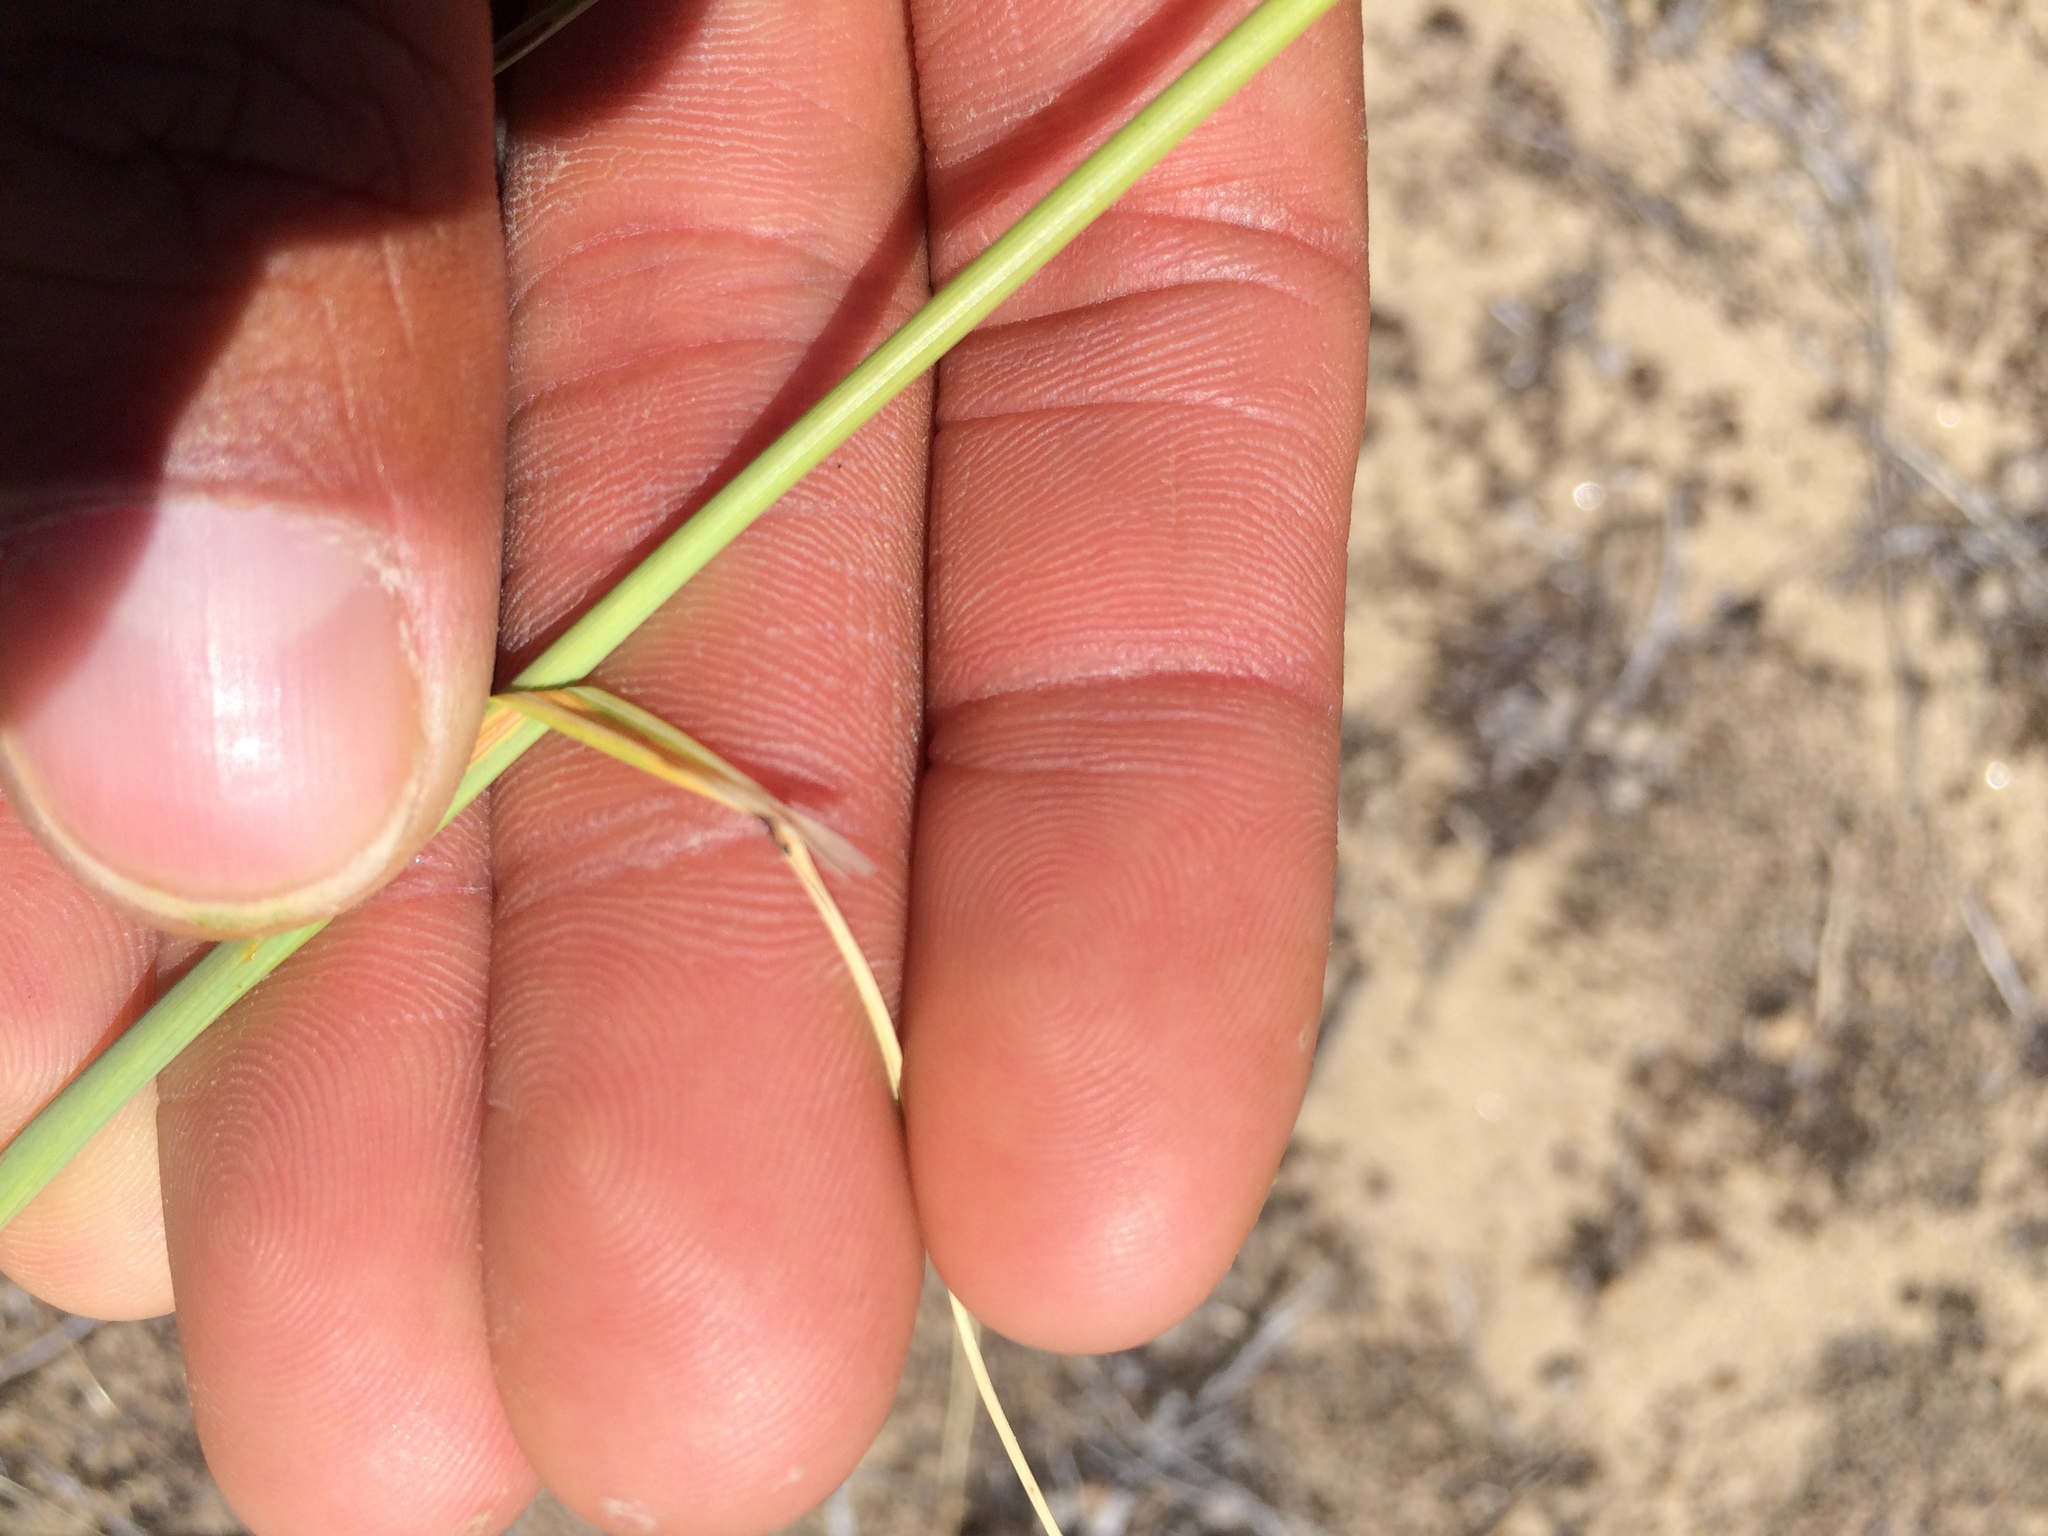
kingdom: Plantae
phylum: Tracheophyta
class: Liliopsida
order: Poales
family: Poaceae
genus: Hesperostipa
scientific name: Hesperostipa comata
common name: Needle-and-thread grass
